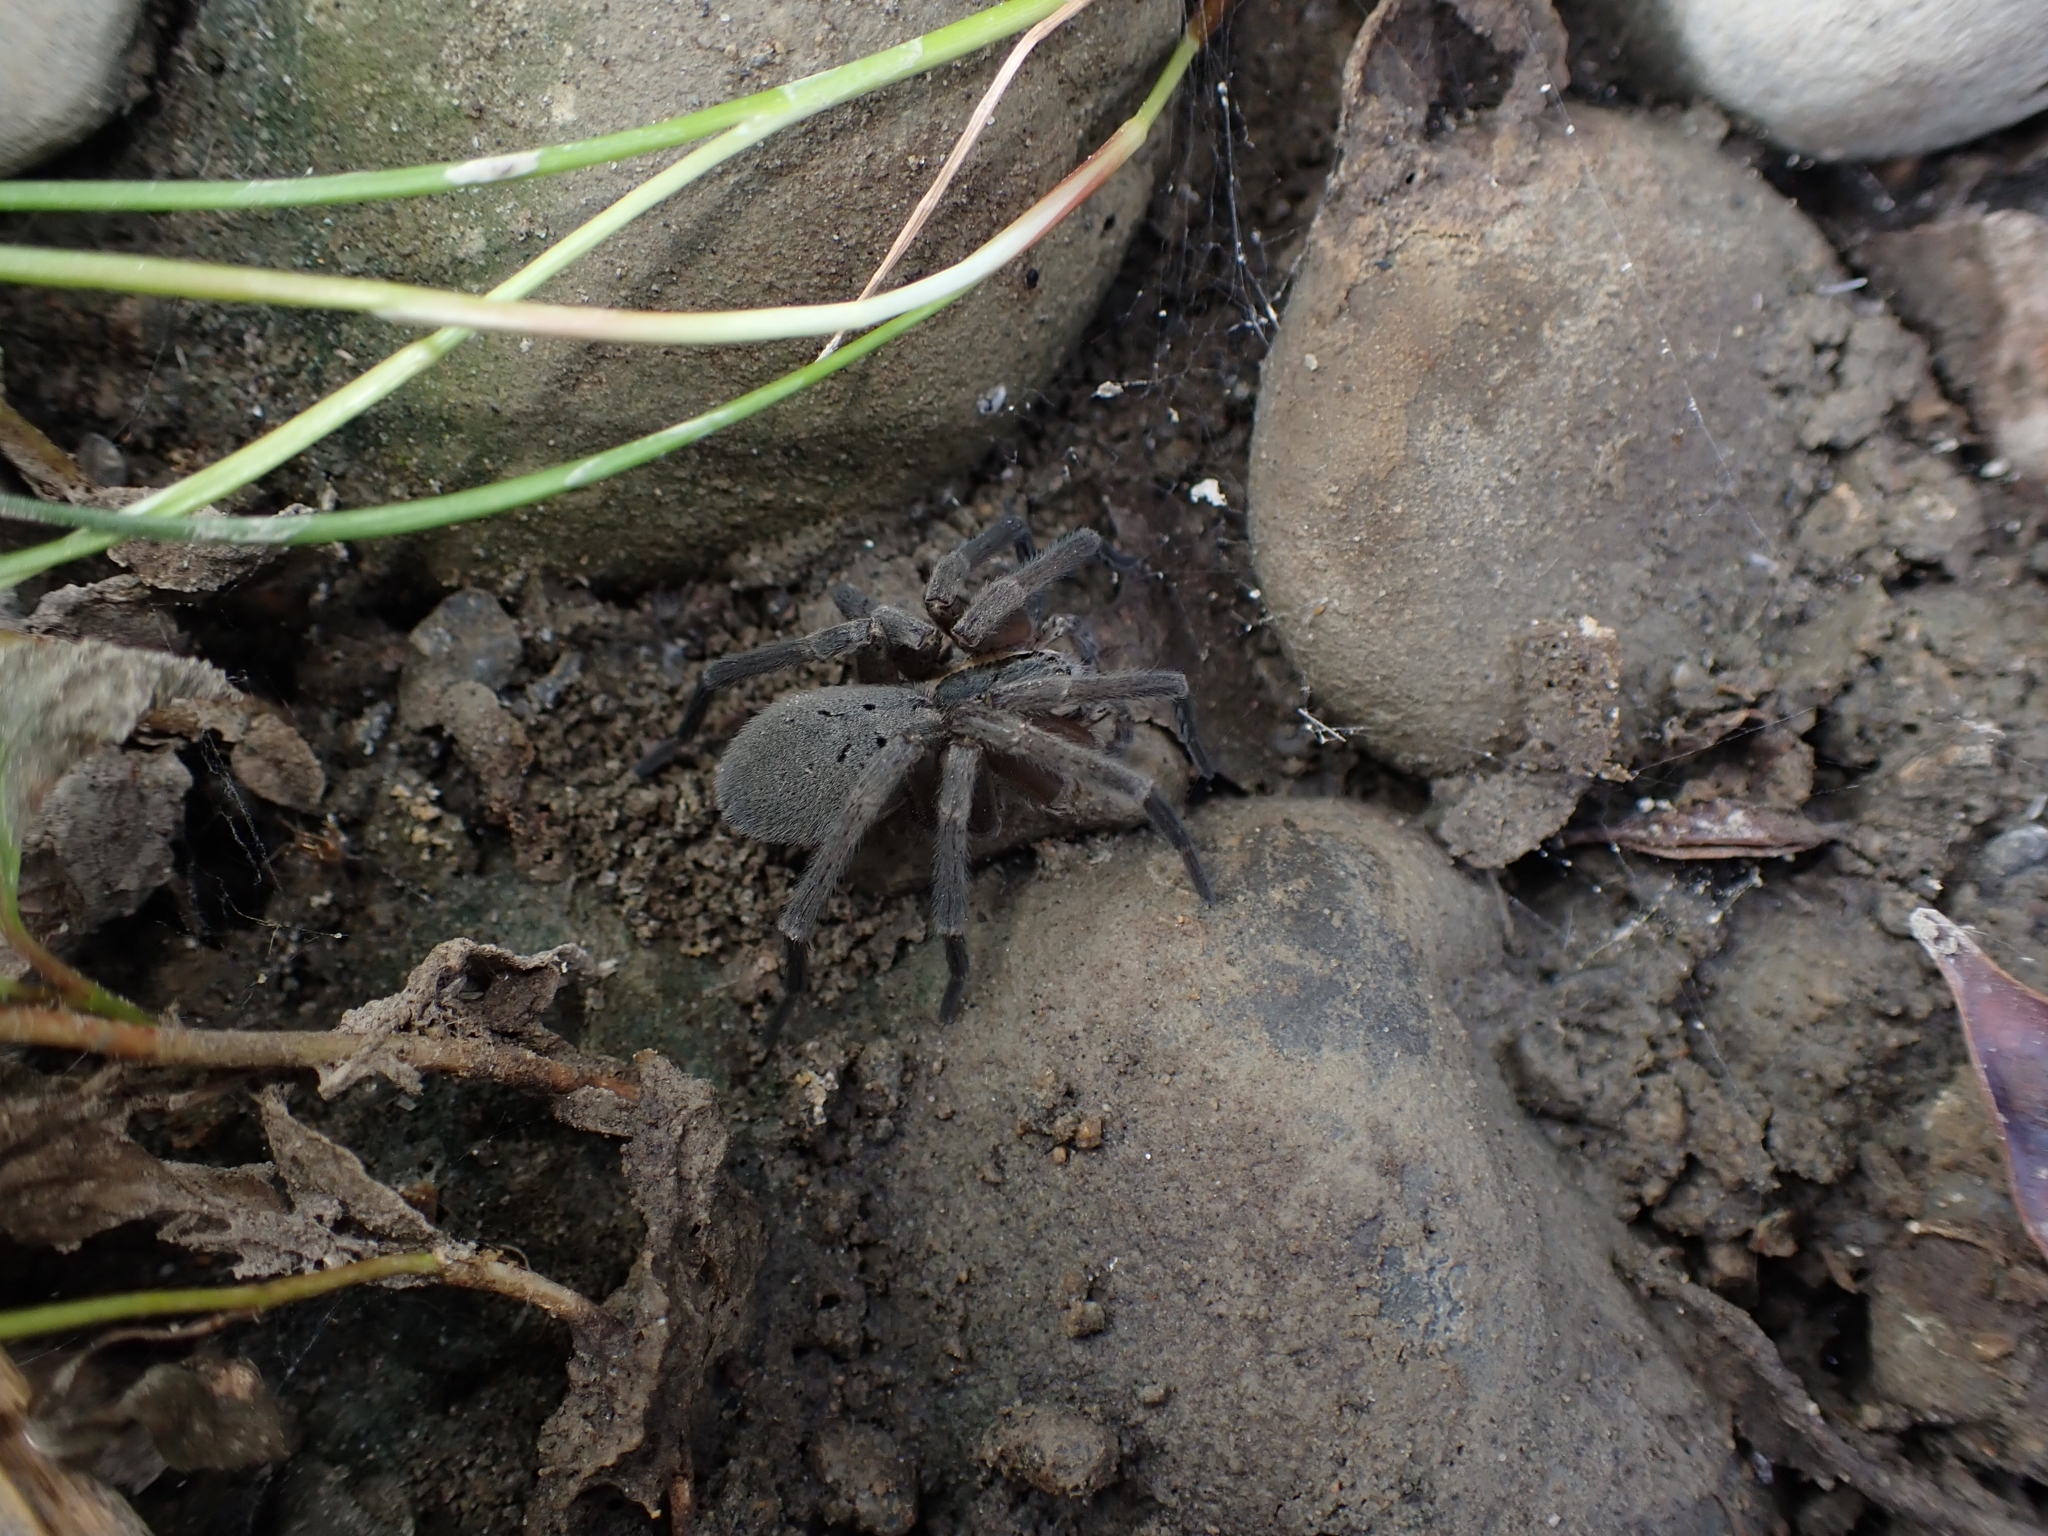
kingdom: Animalia
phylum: Arthropoda
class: Arachnida
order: Araneae
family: Pisauridae
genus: Dolomedes
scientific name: Dolomedes aquaticus
